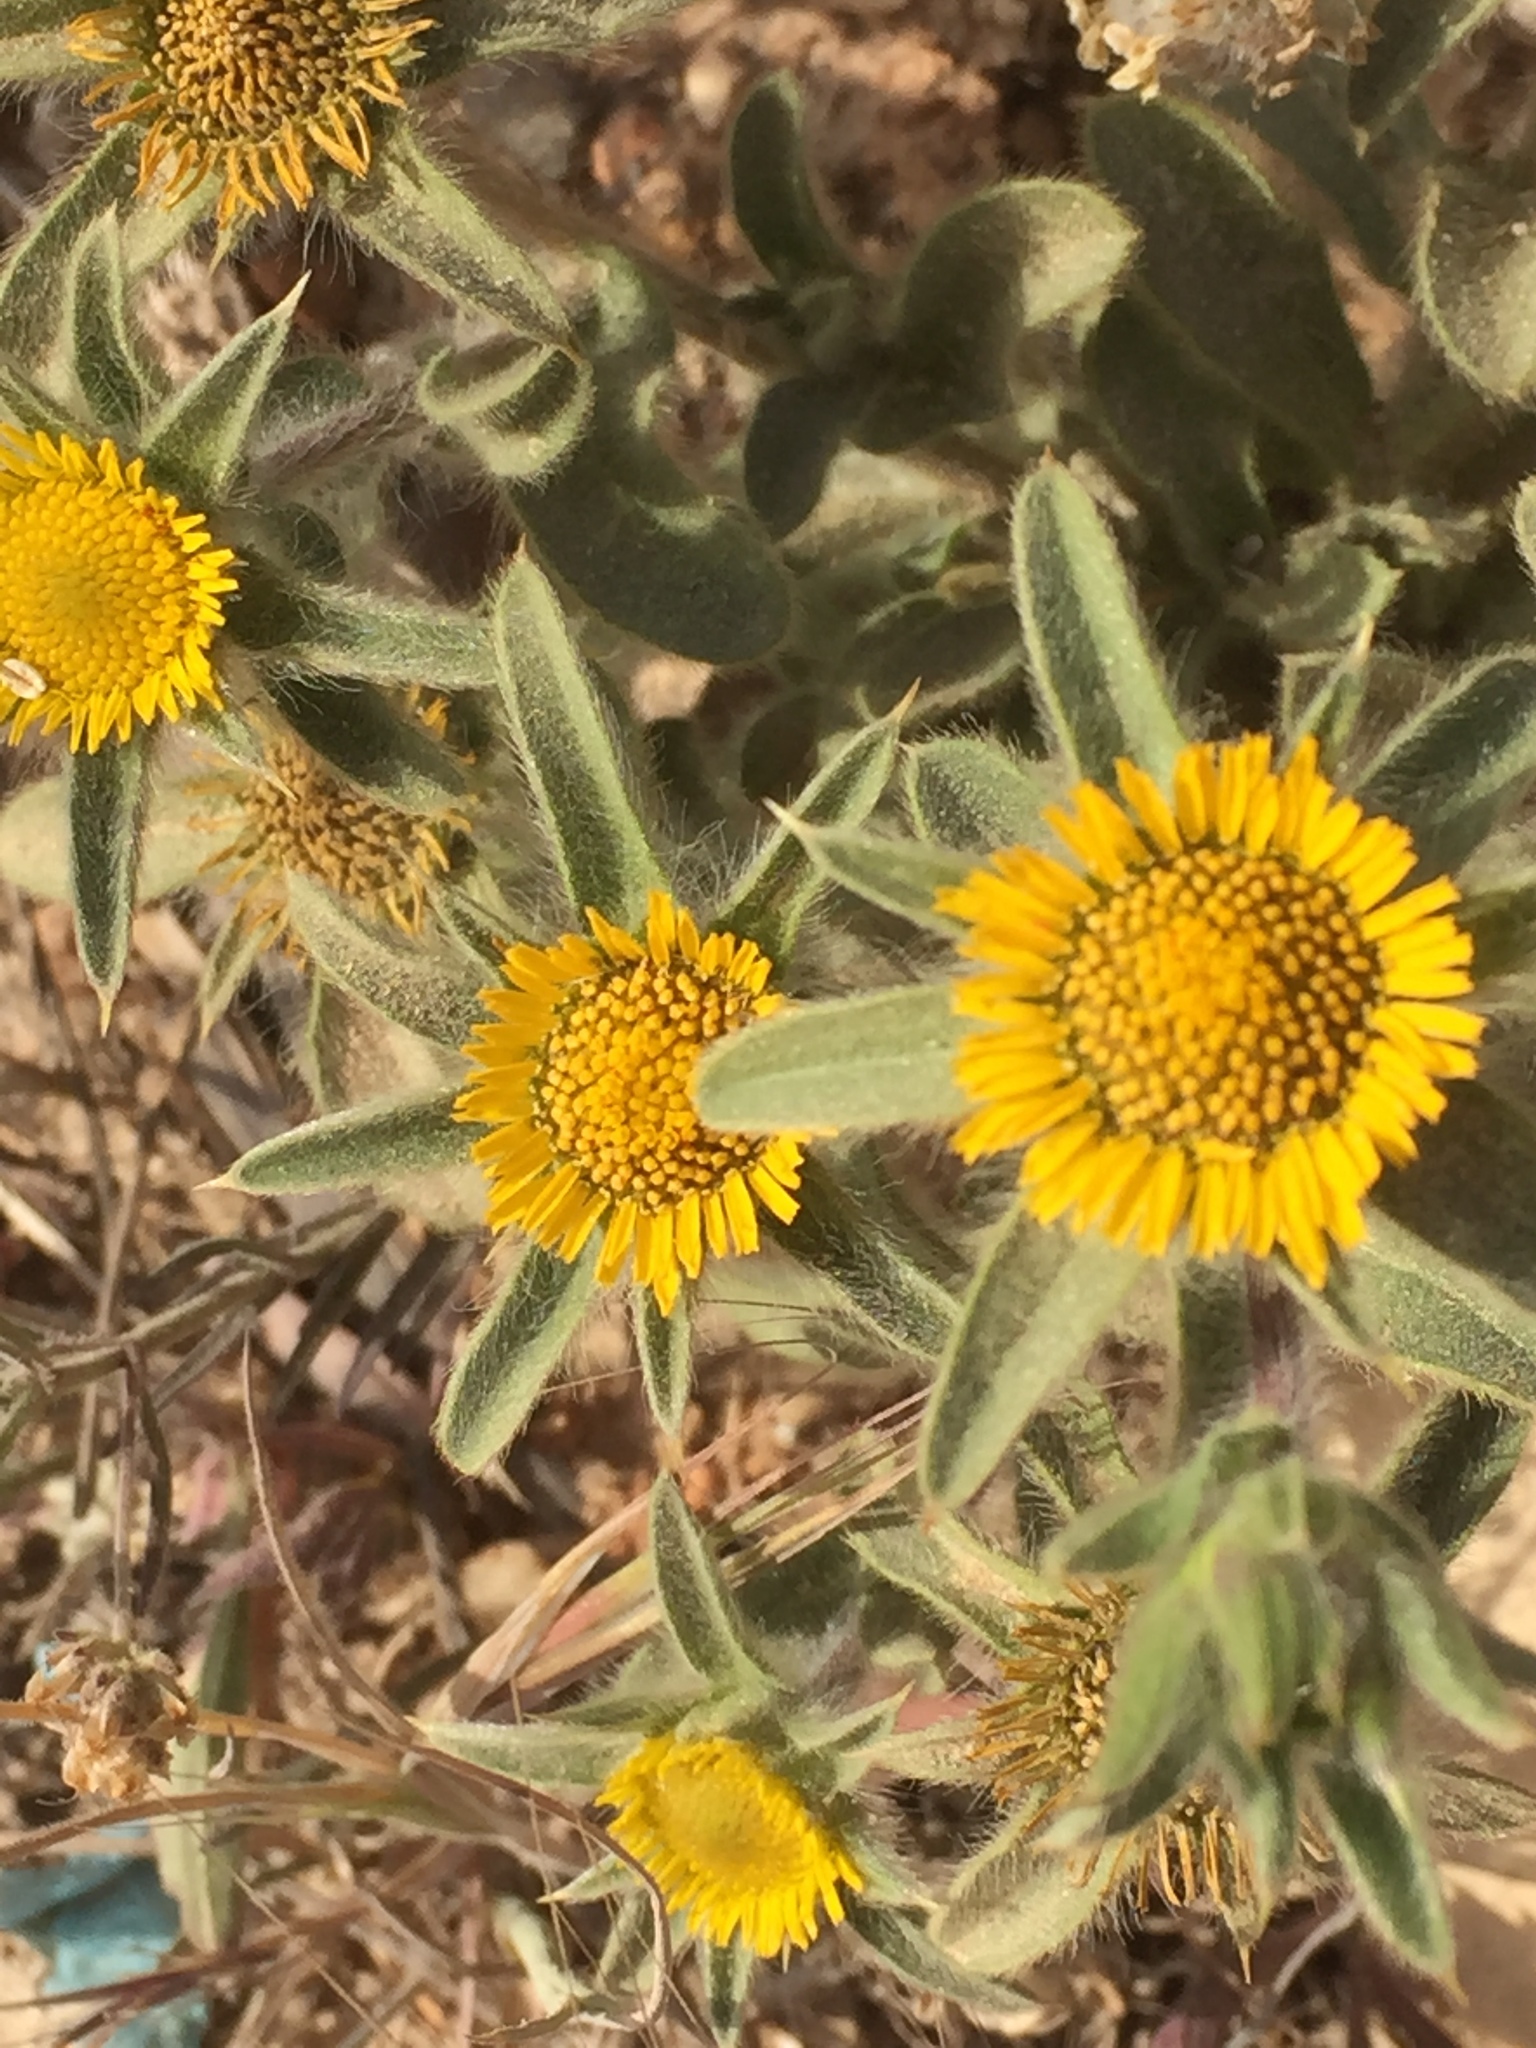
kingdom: Plantae
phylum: Tracheophyta
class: Magnoliopsida
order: Asterales
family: Asteraceae
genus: Pallenis
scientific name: Pallenis spinosa
